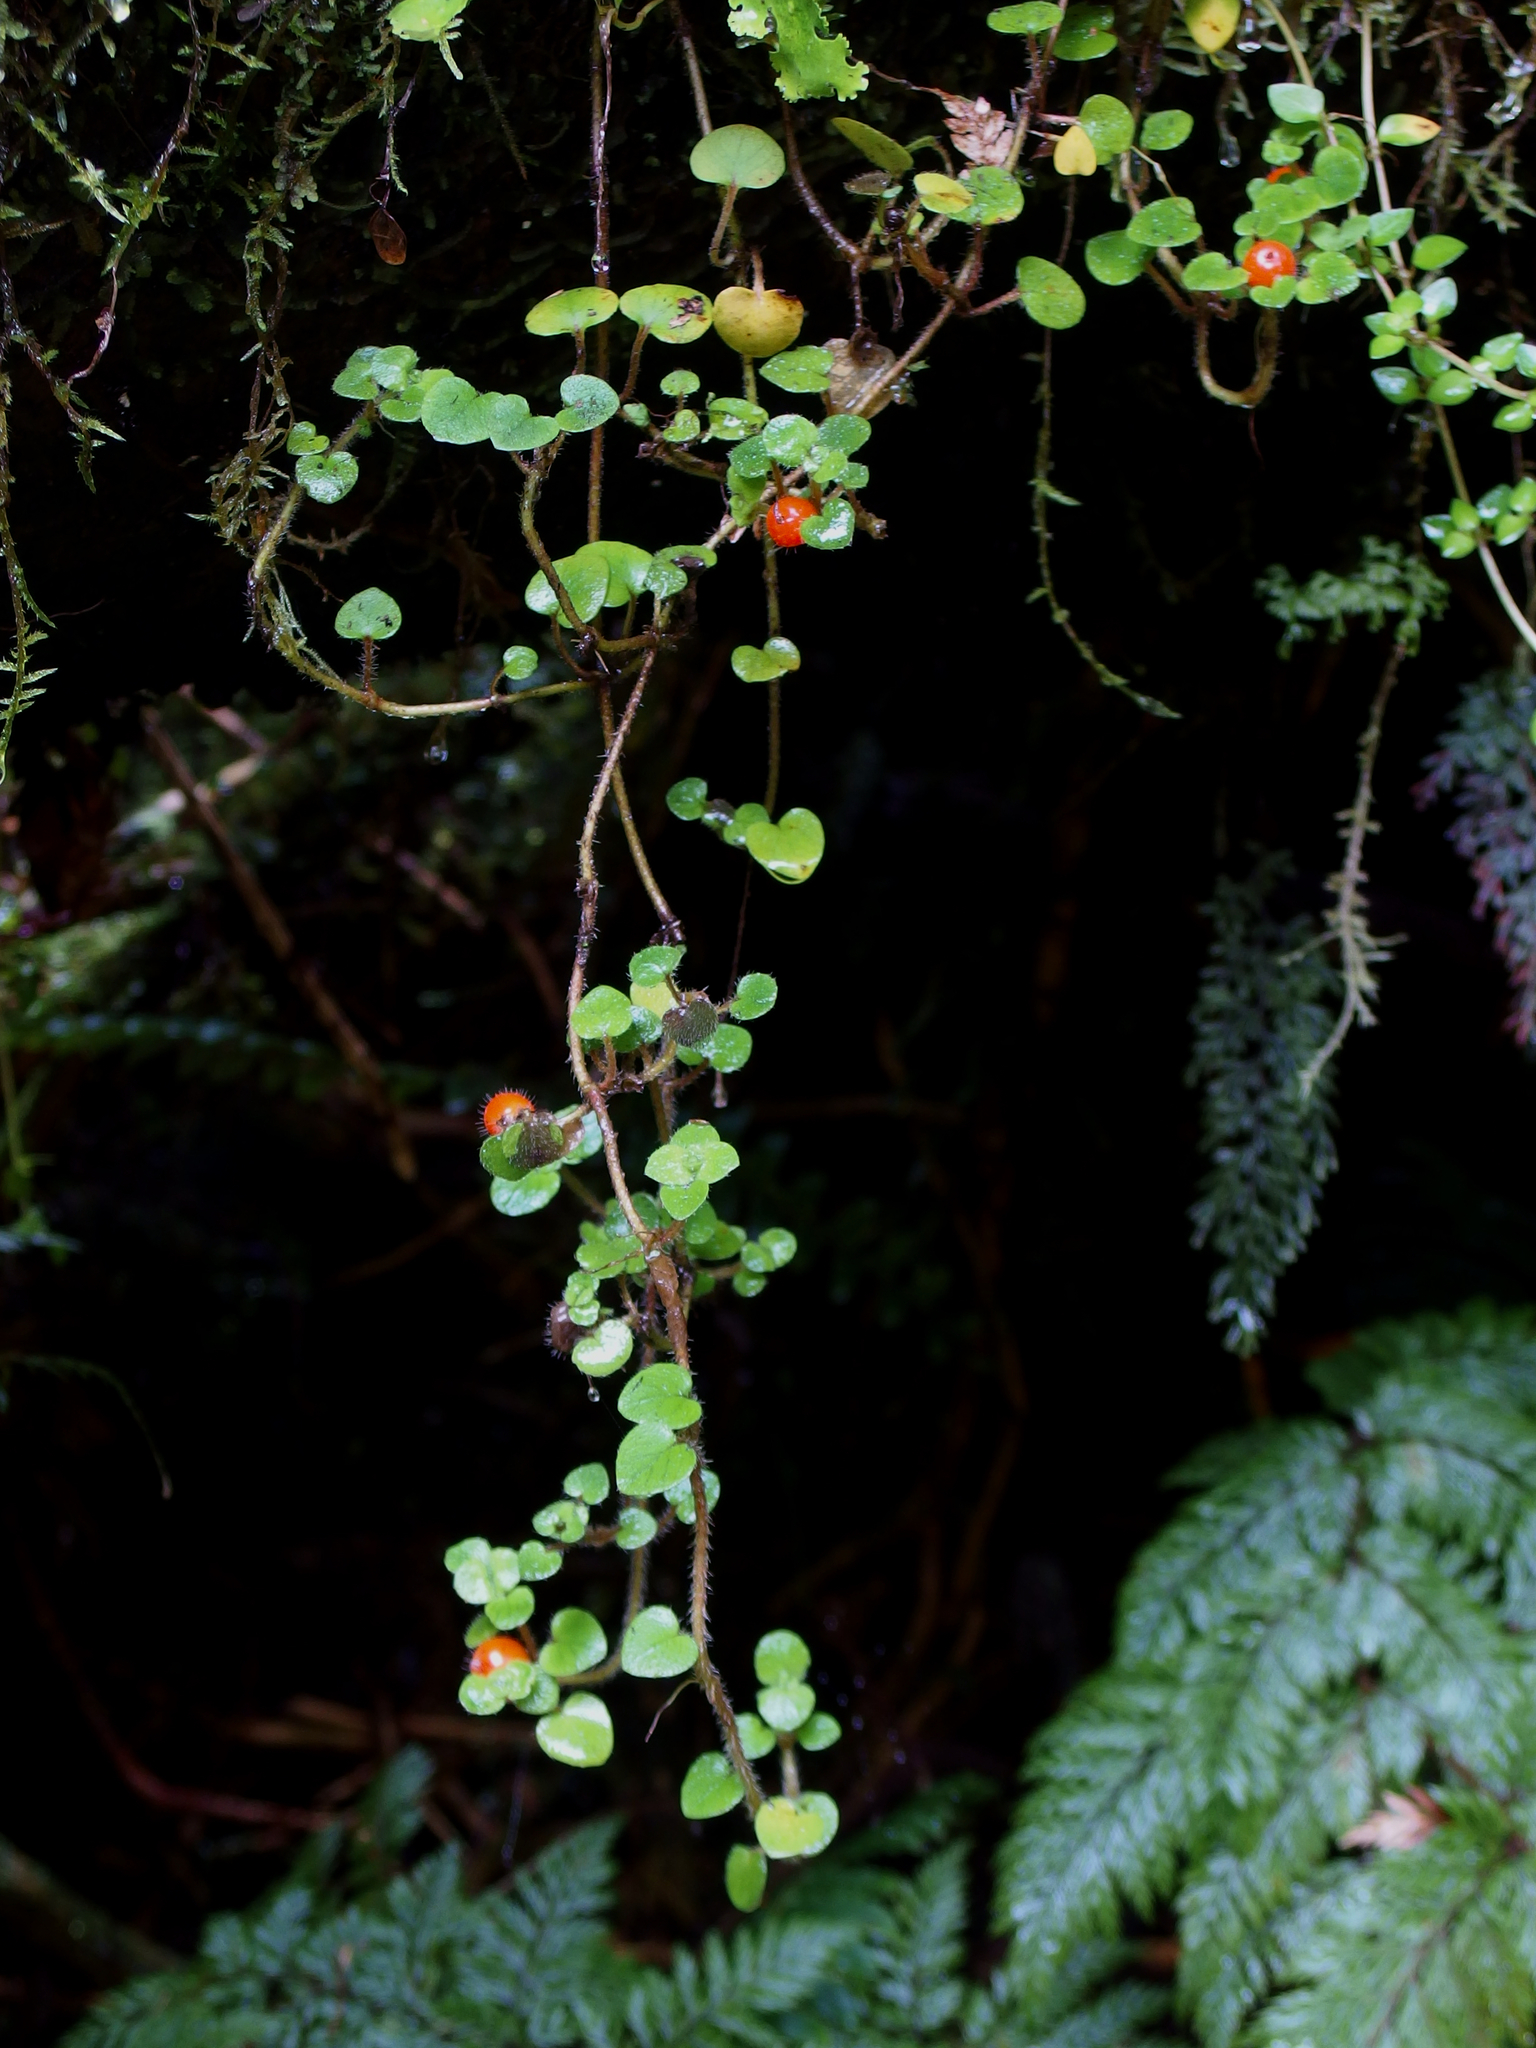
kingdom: Plantae
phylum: Tracheophyta
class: Magnoliopsida
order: Gentianales
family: Rubiaceae
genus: Nertera
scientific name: Nertera villosa
